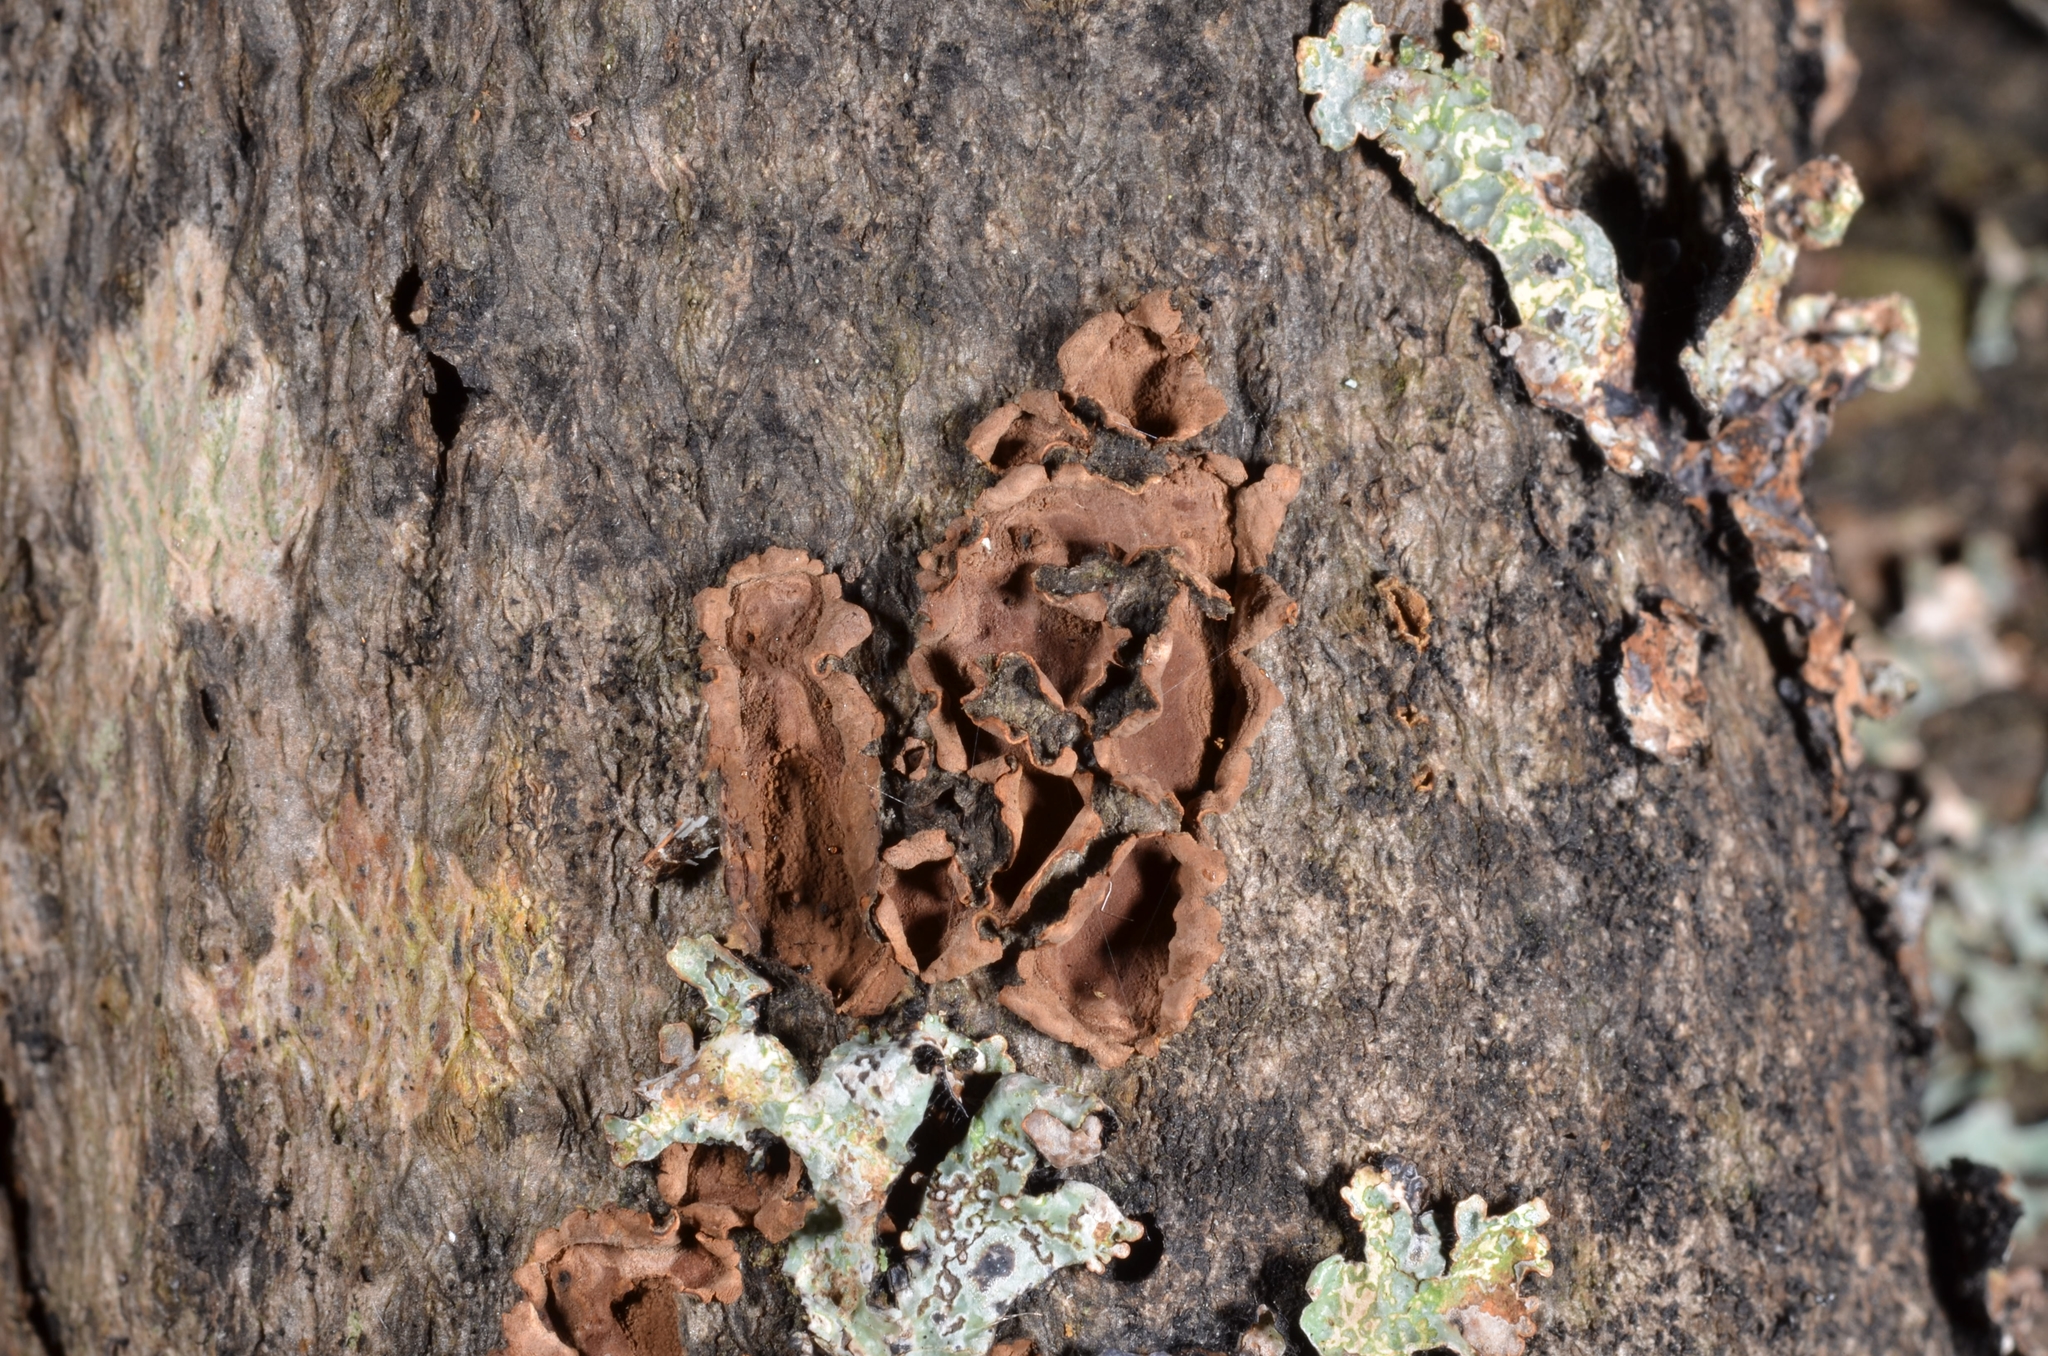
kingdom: Fungi
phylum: Ascomycota
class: Sordariomycetes
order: Xylariales
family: Hypoxylaceae
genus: Hypoxylon
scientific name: Hypoxylon cercidicola
